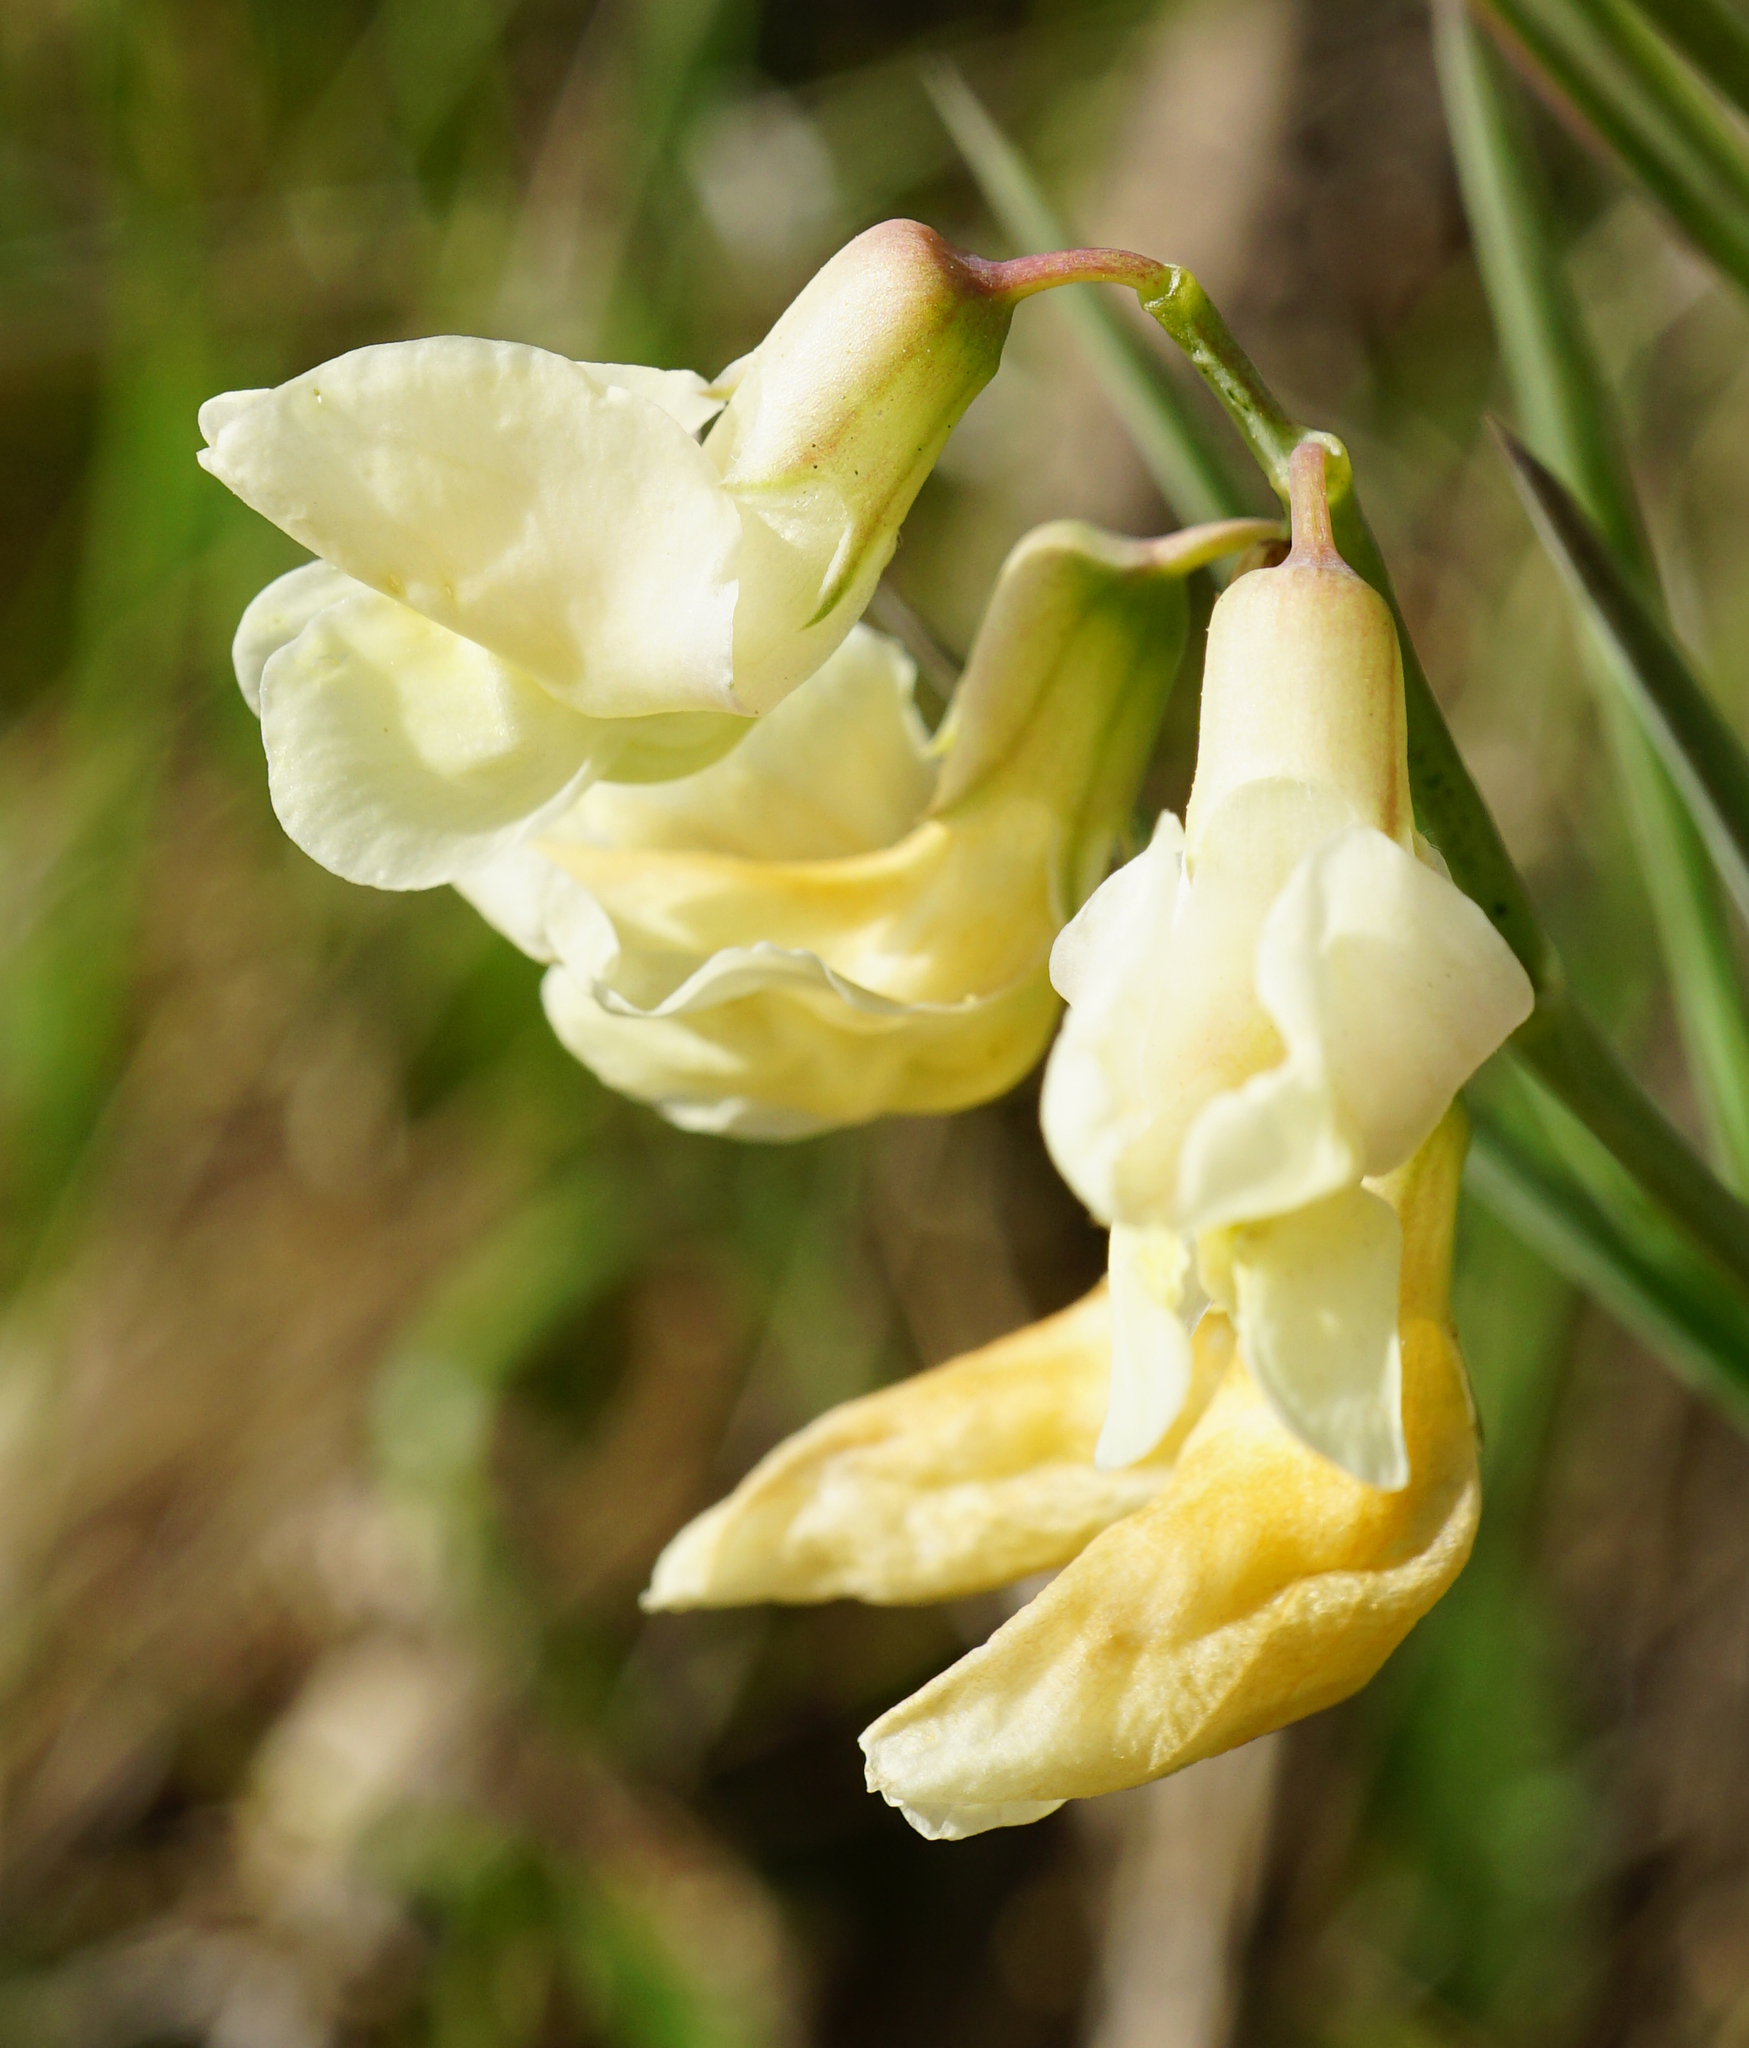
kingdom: Plantae
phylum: Tracheophyta
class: Magnoliopsida
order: Fabales
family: Fabaceae
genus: Lathyrus
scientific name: Lathyrus pannonicus
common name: Pea
